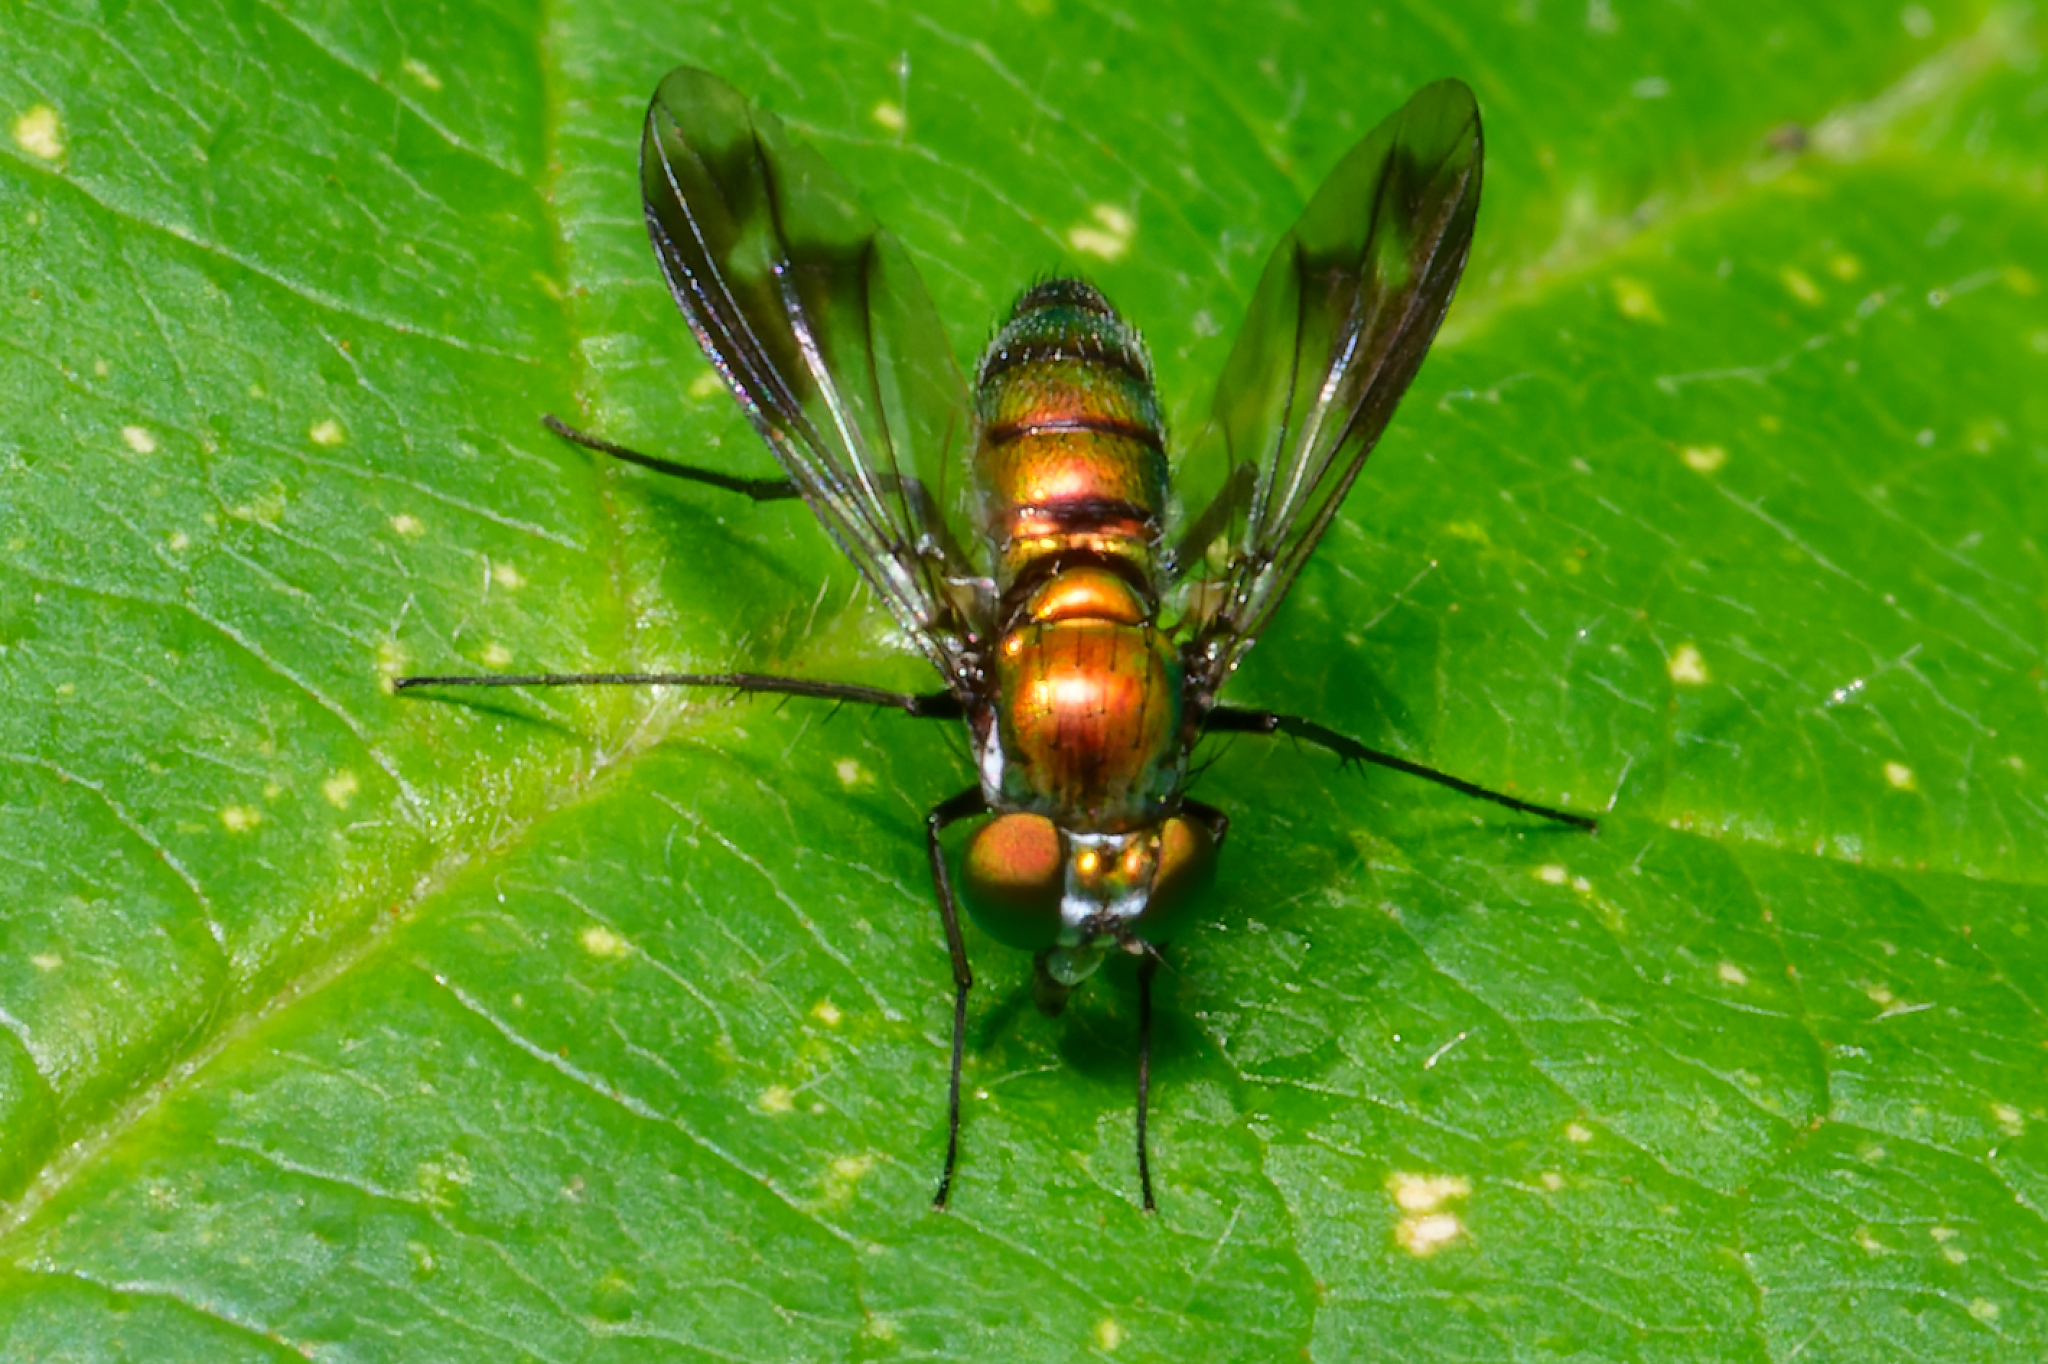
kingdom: Animalia
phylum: Arthropoda
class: Insecta
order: Diptera
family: Dolichopodidae
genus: Condylostylus
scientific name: Condylostylus patibulatus
